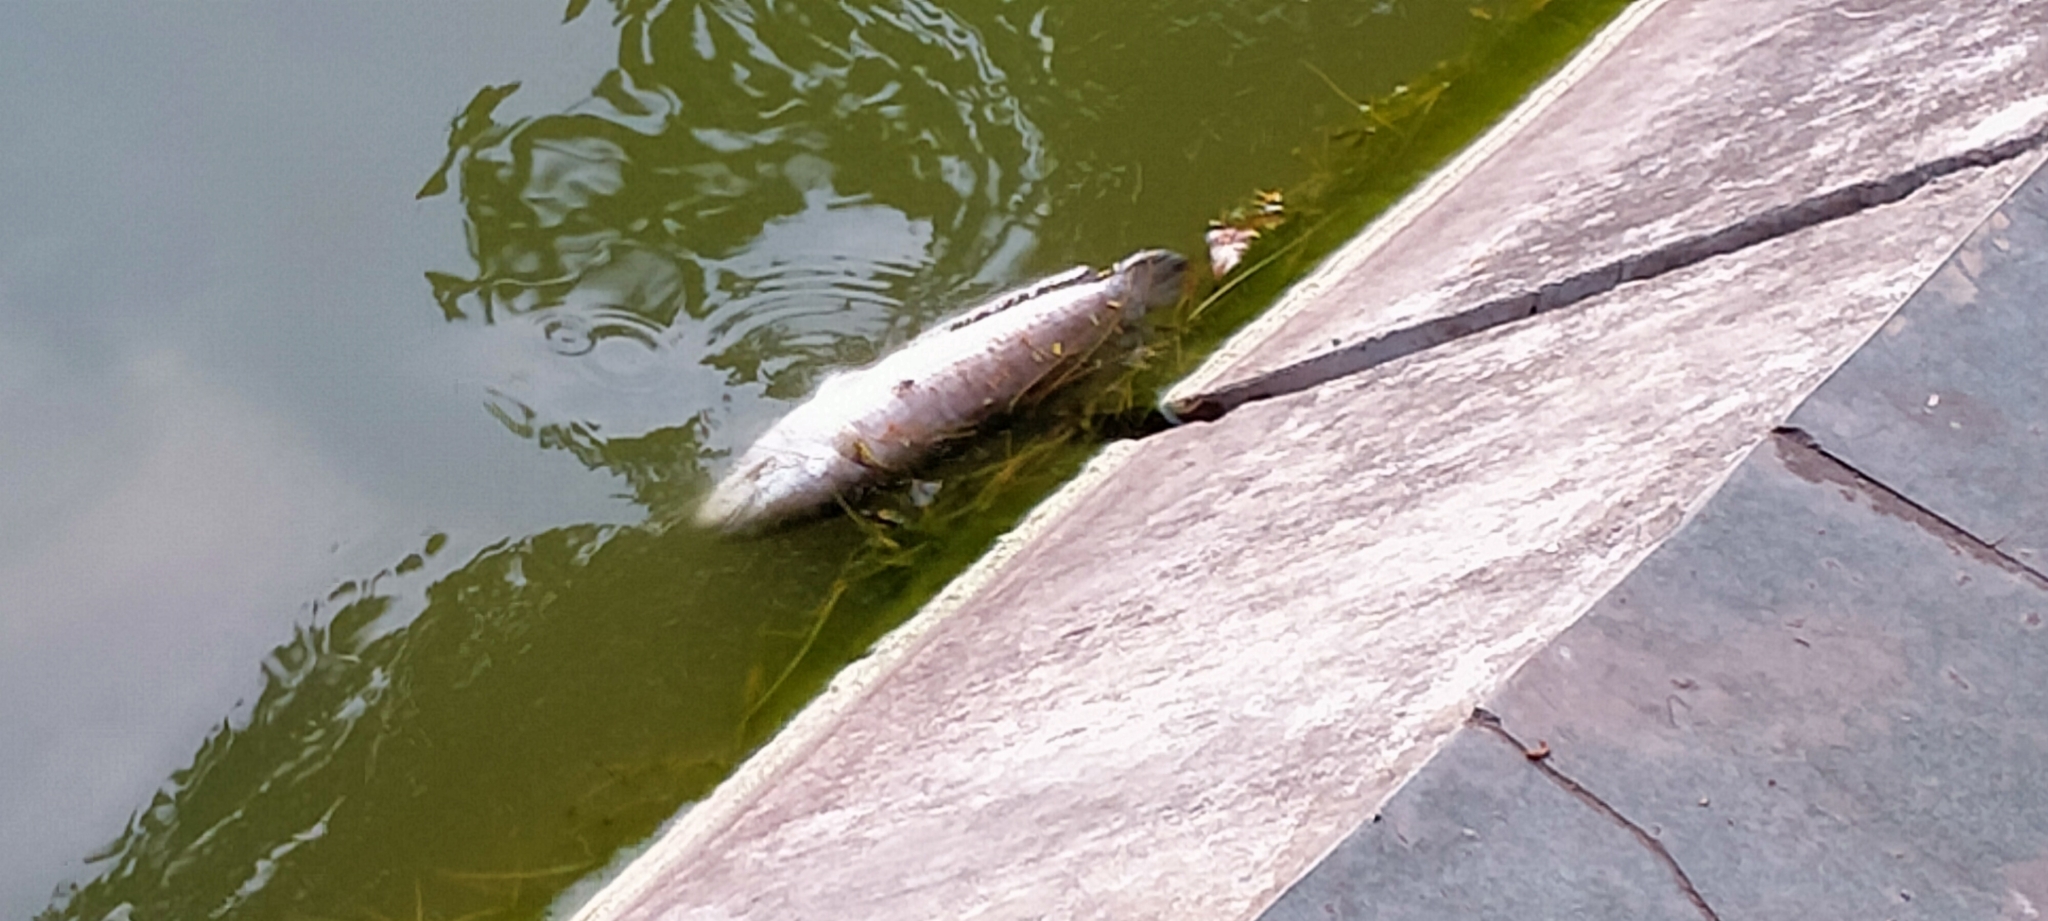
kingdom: Animalia
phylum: Chordata
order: Perciformes
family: Channidae
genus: Channa
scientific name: Channa striata
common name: Striped snakehead
